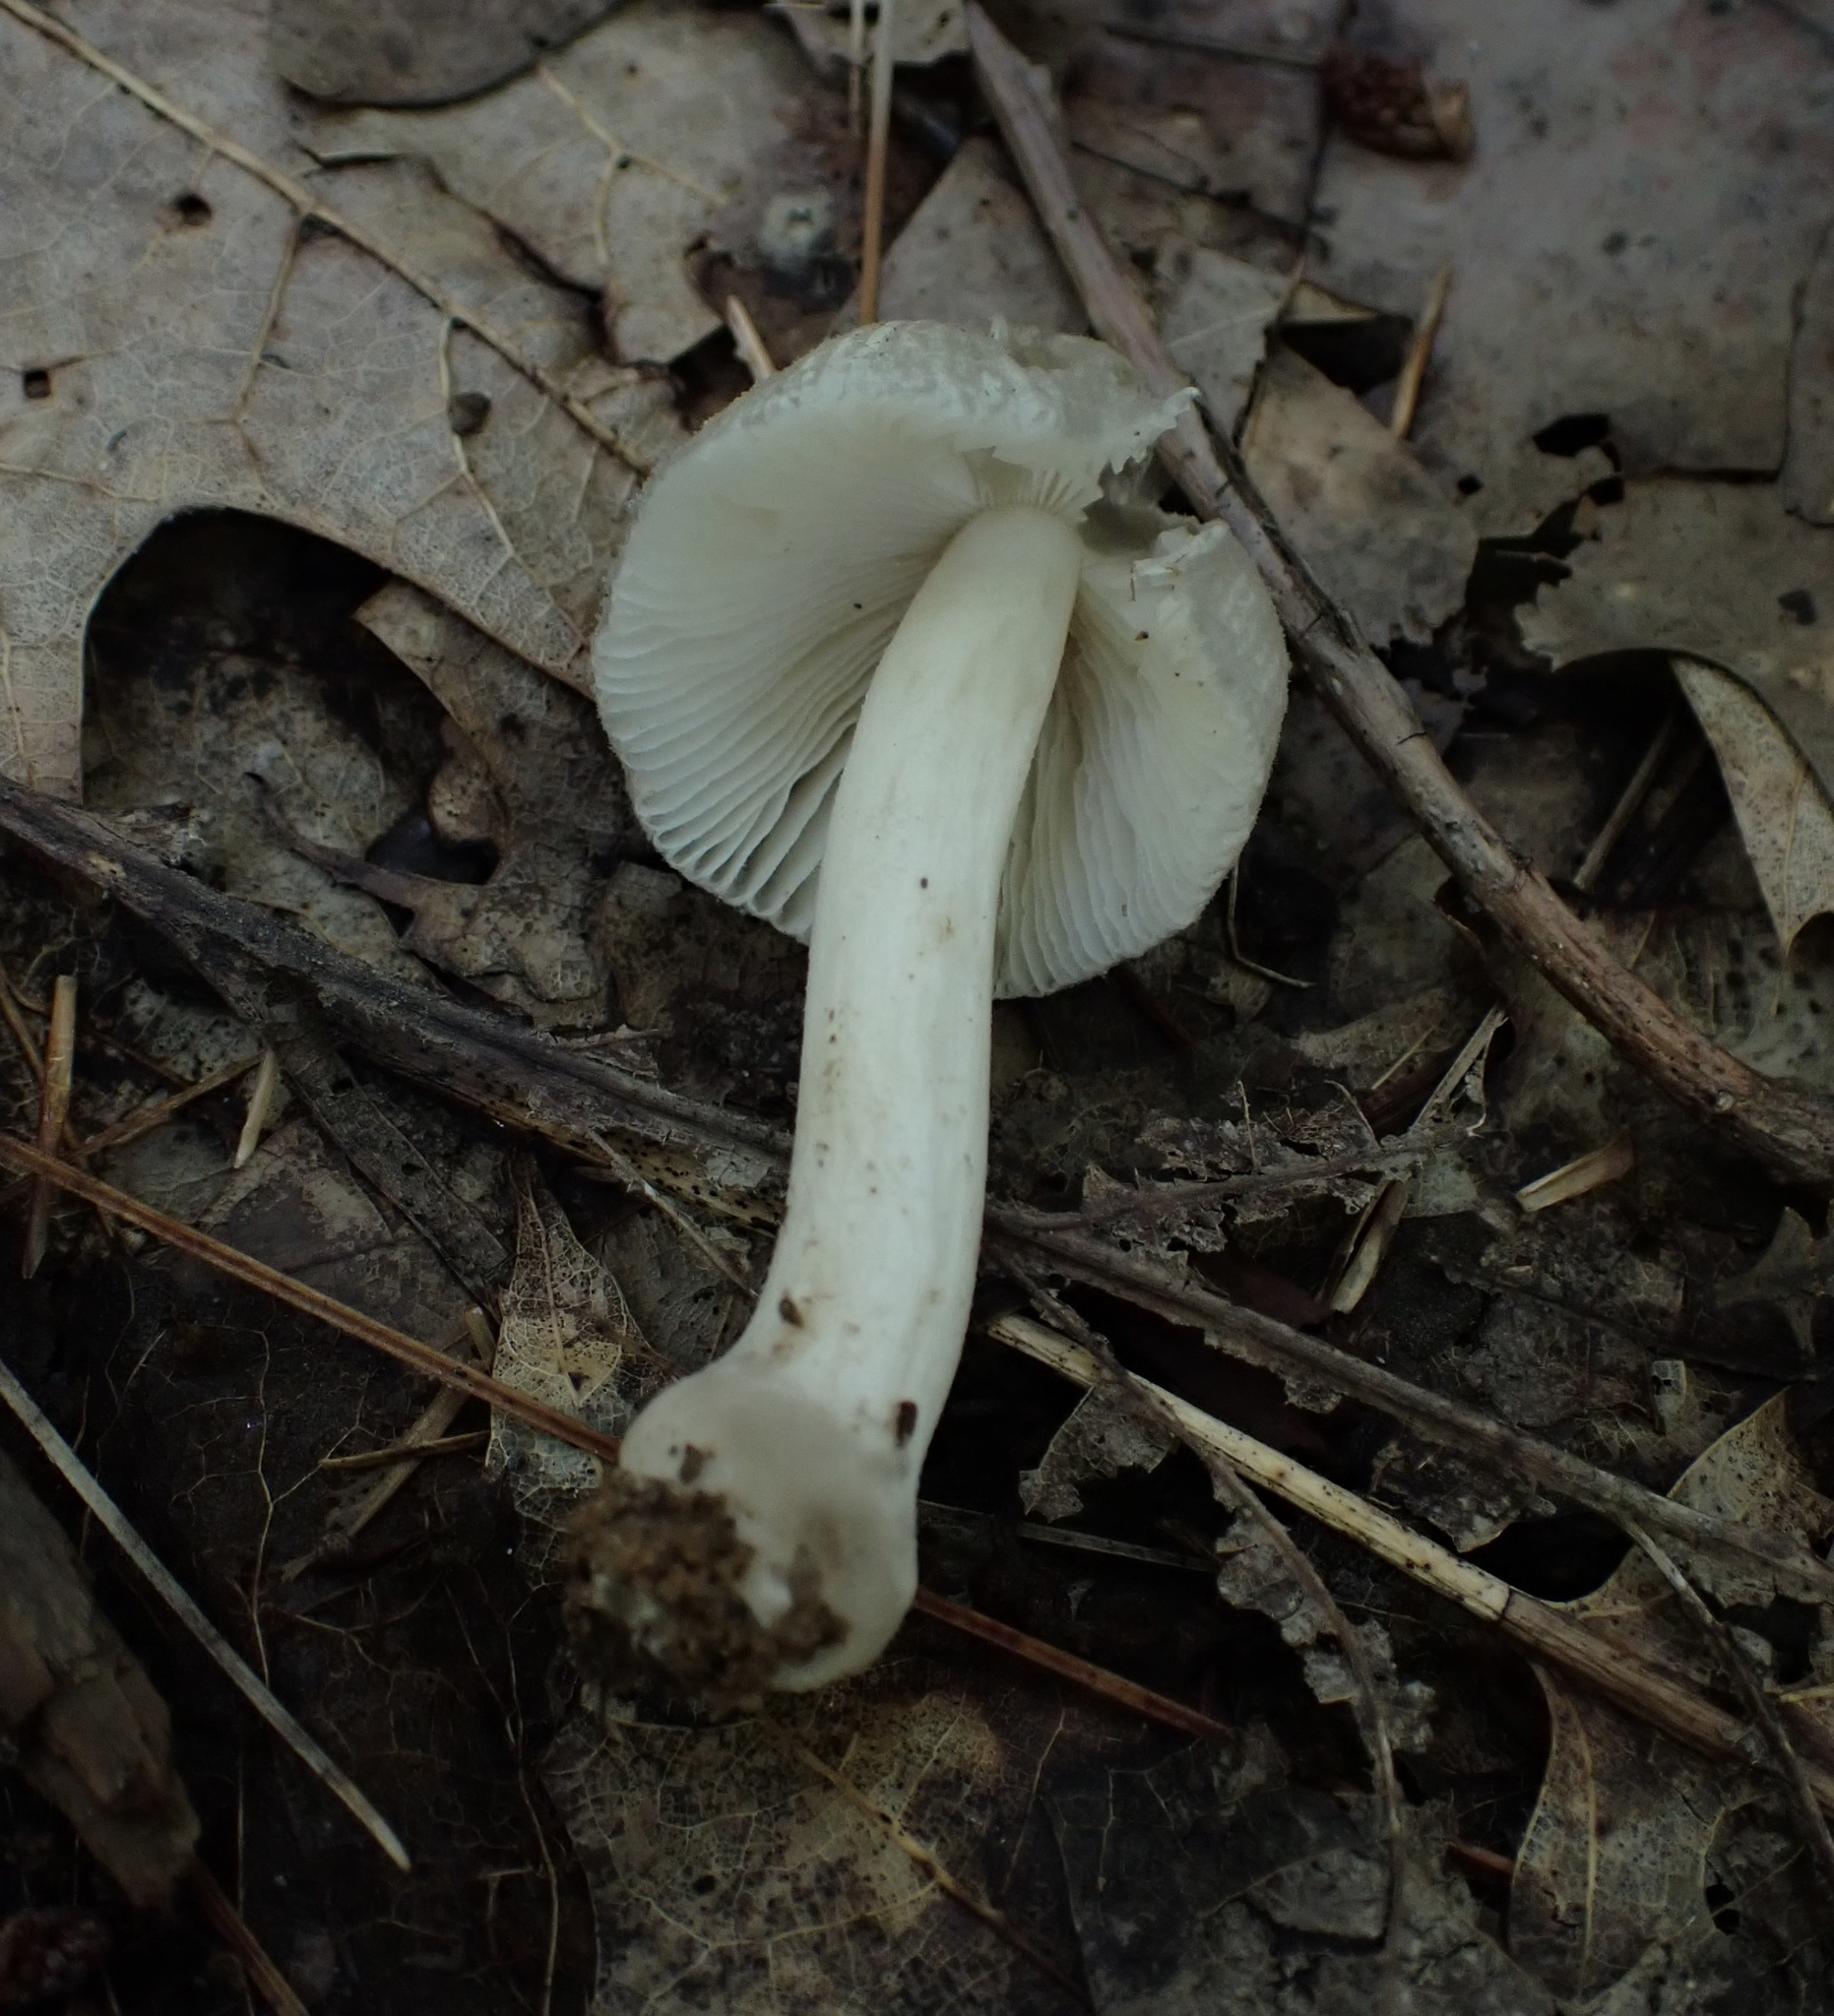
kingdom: Fungi
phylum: Basidiomycota
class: Agaricomycetes
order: Agaricales
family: Amanitaceae
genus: Amanita
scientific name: Amanita farinosa
